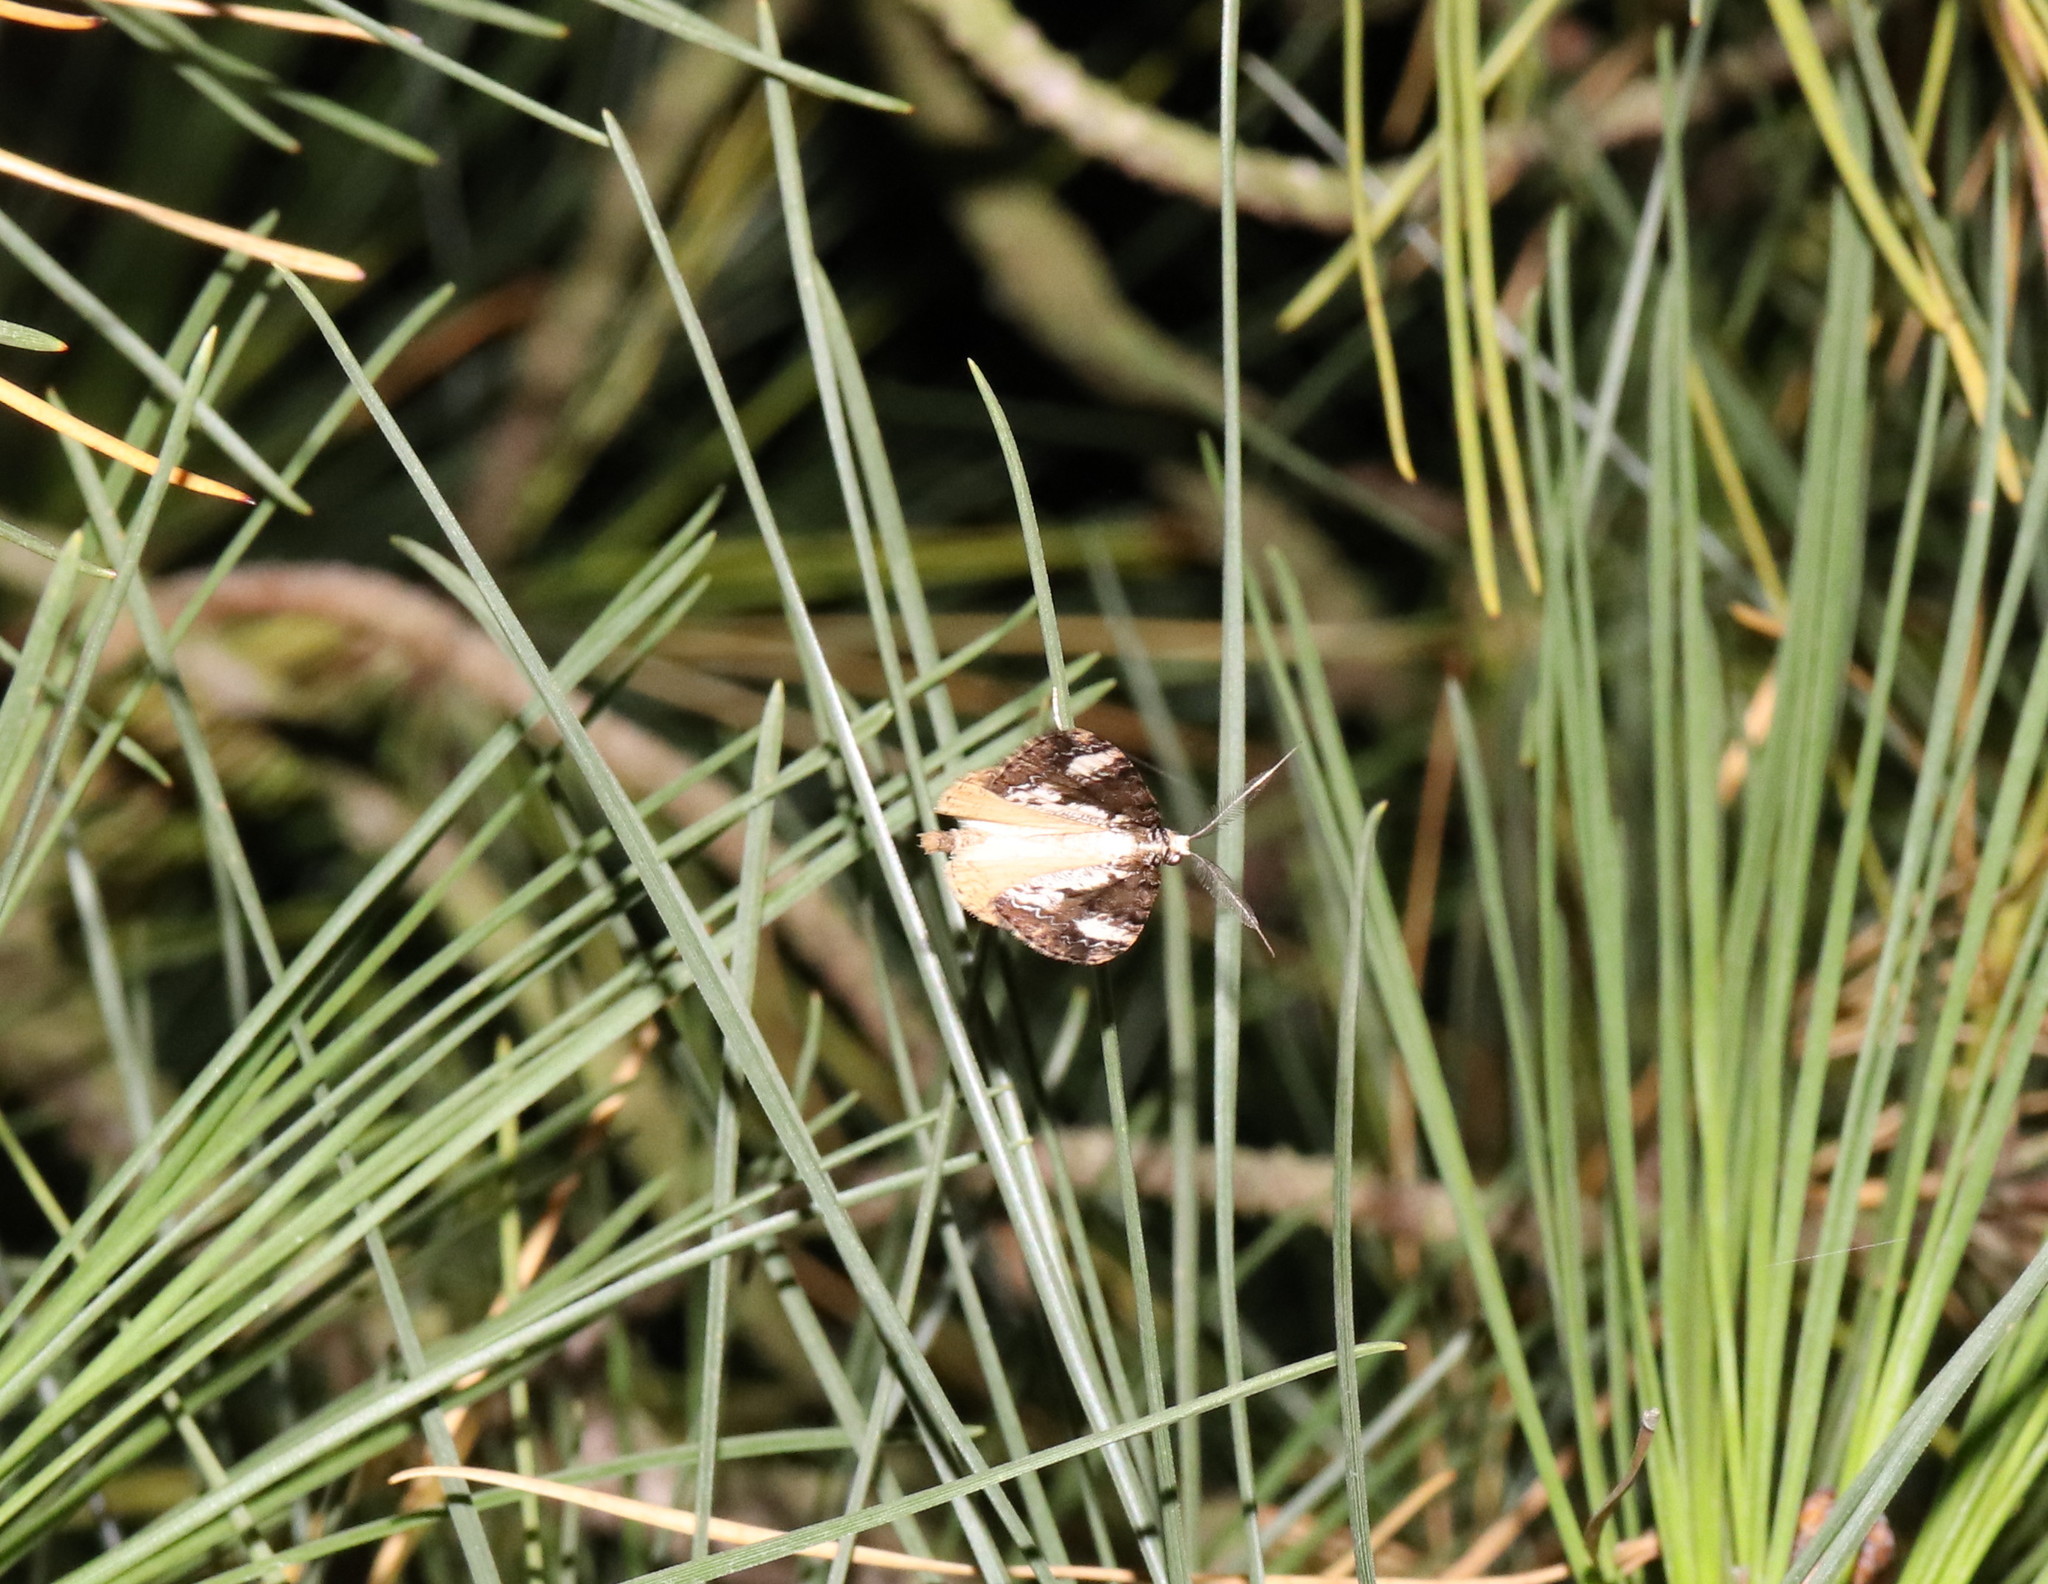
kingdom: Animalia
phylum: Arthropoda
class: Insecta
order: Lepidoptera
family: Geometridae
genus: Pseudocoremia
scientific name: Pseudocoremia leucelaea
